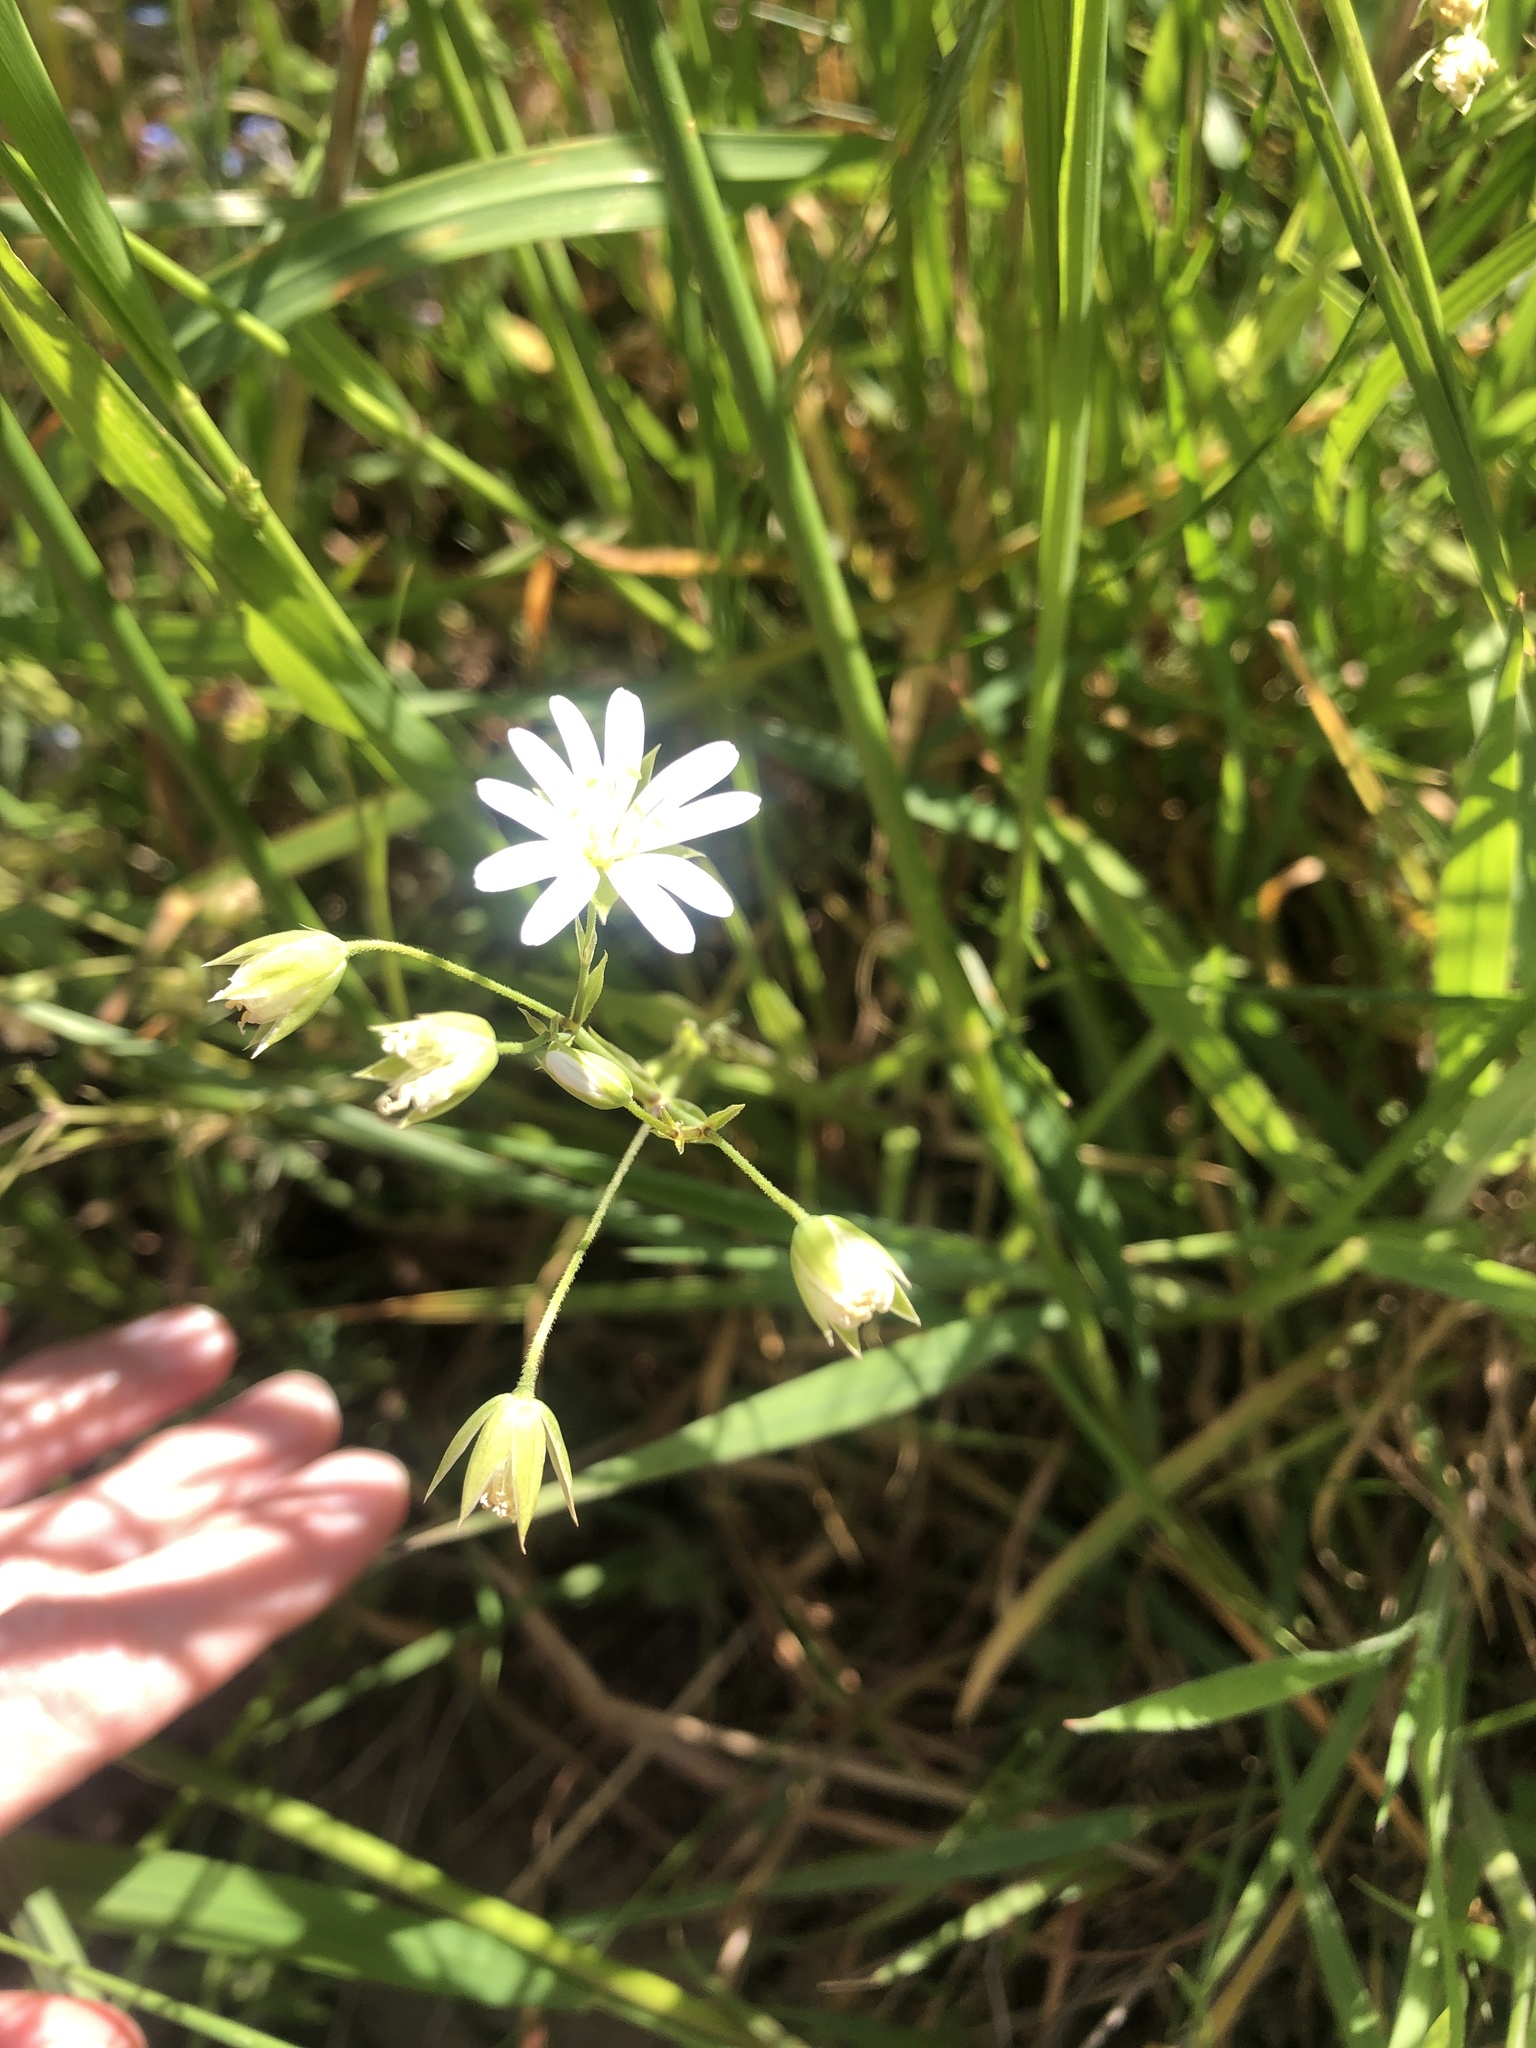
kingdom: Plantae
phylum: Tracheophyta
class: Magnoliopsida
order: Caryophyllales
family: Caryophyllaceae
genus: Rabelera
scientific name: Rabelera holostea
